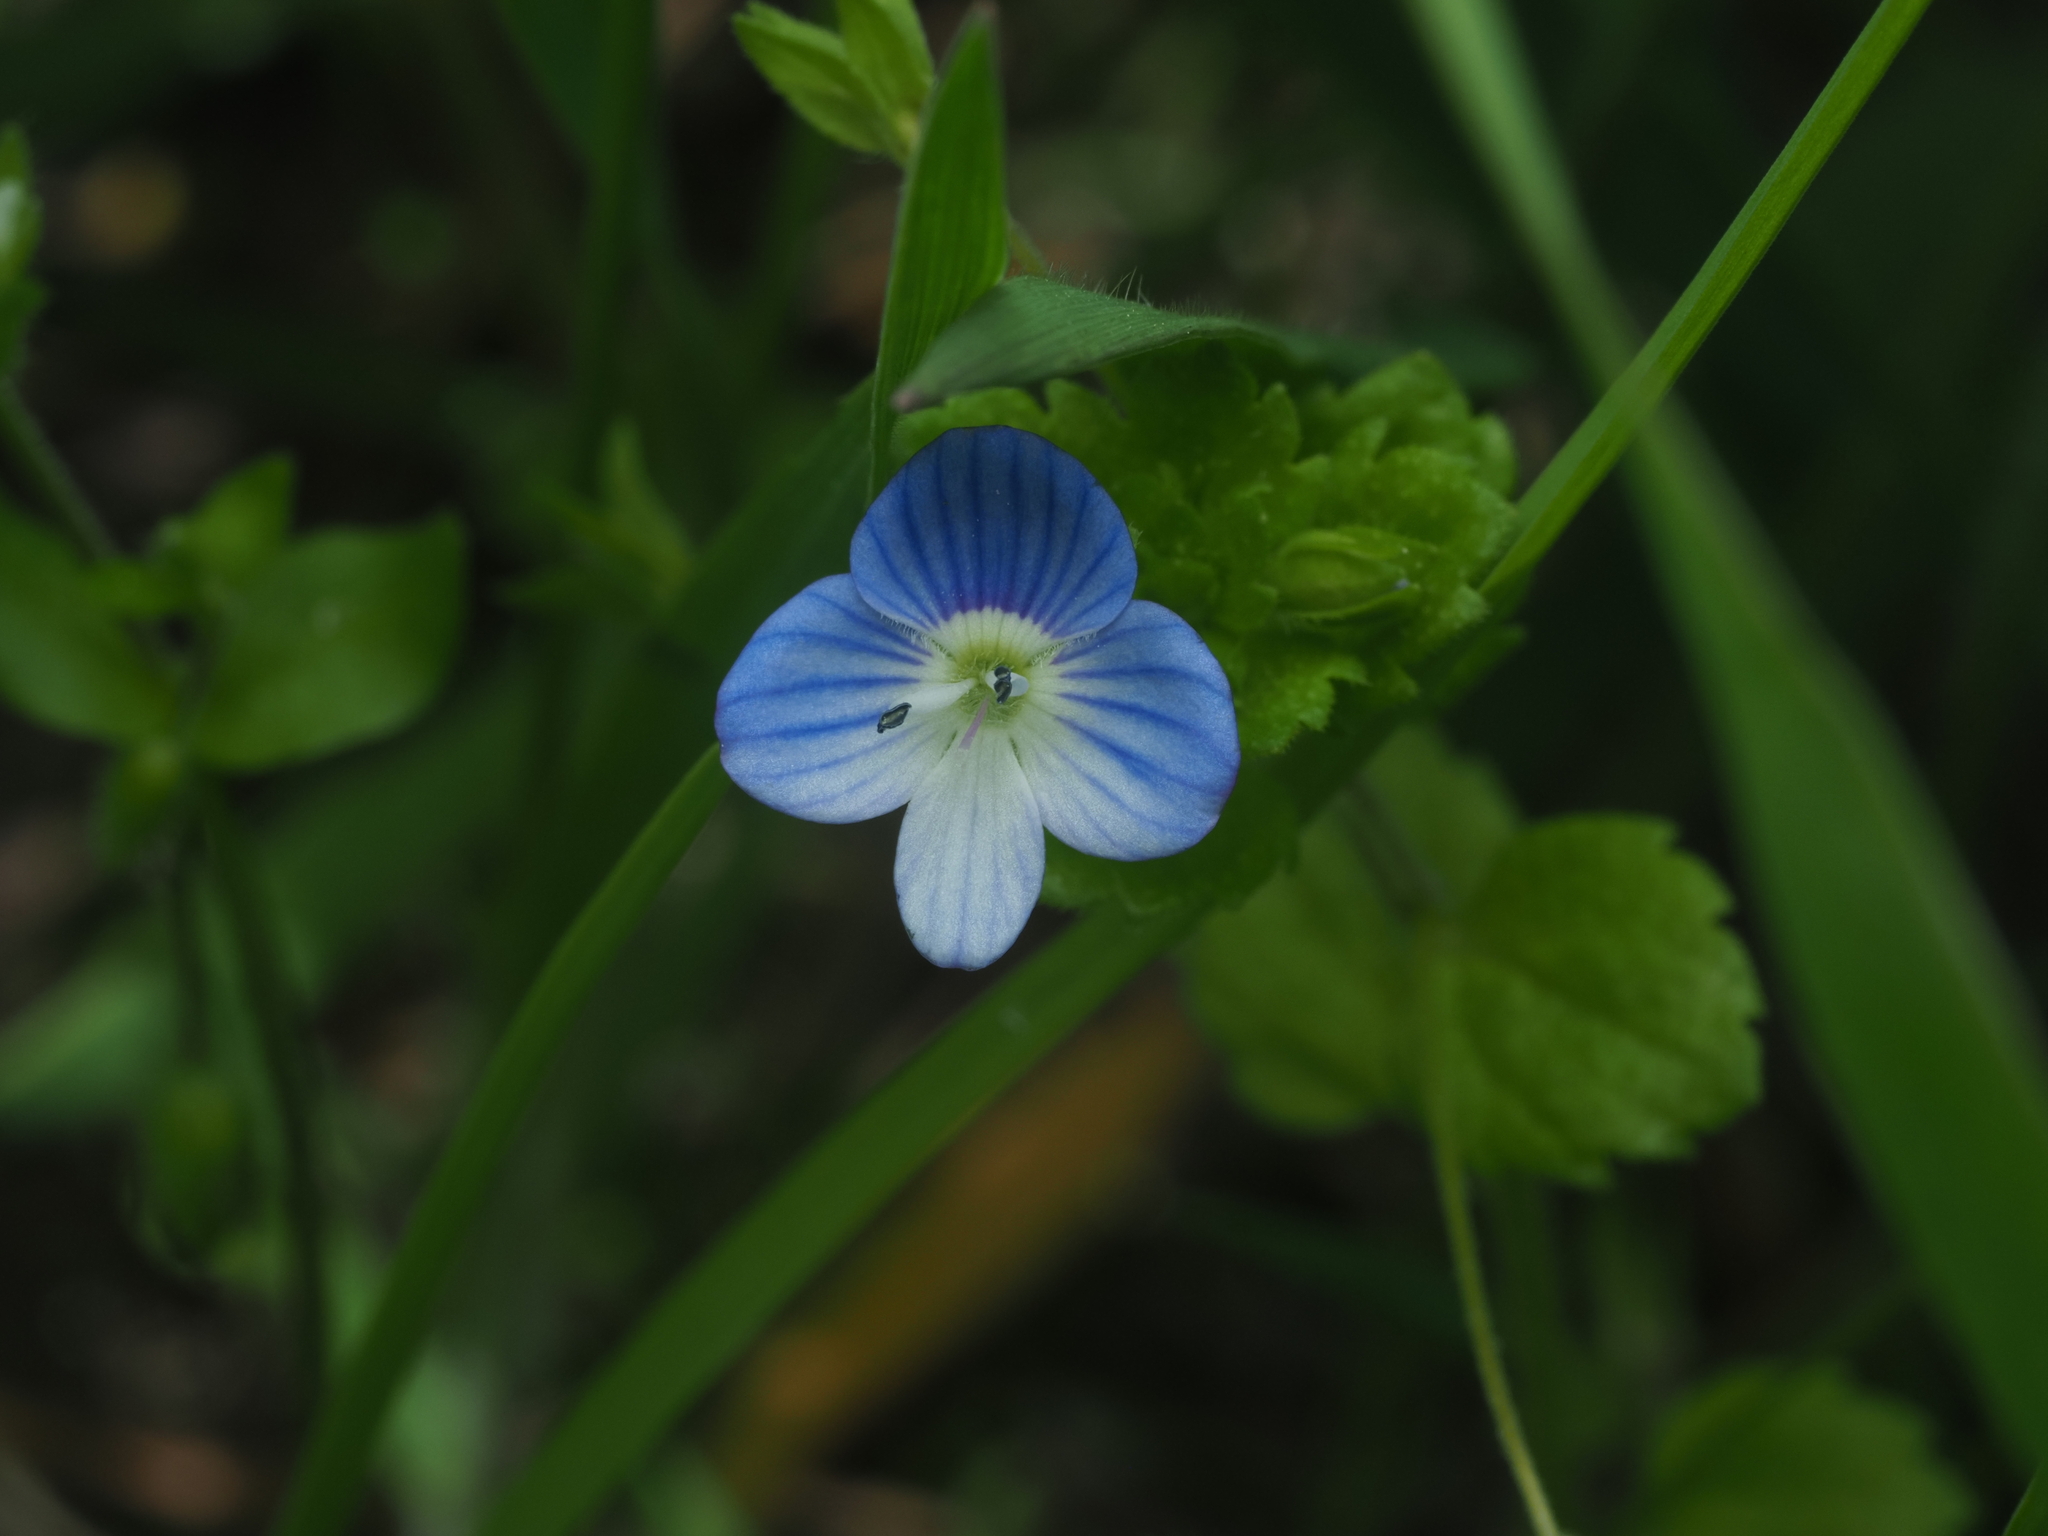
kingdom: Plantae
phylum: Tracheophyta
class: Magnoliopsida
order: Lamiales
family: Plantaginaceae
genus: Veronica
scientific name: Veronica persica
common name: Common field-speedwell
